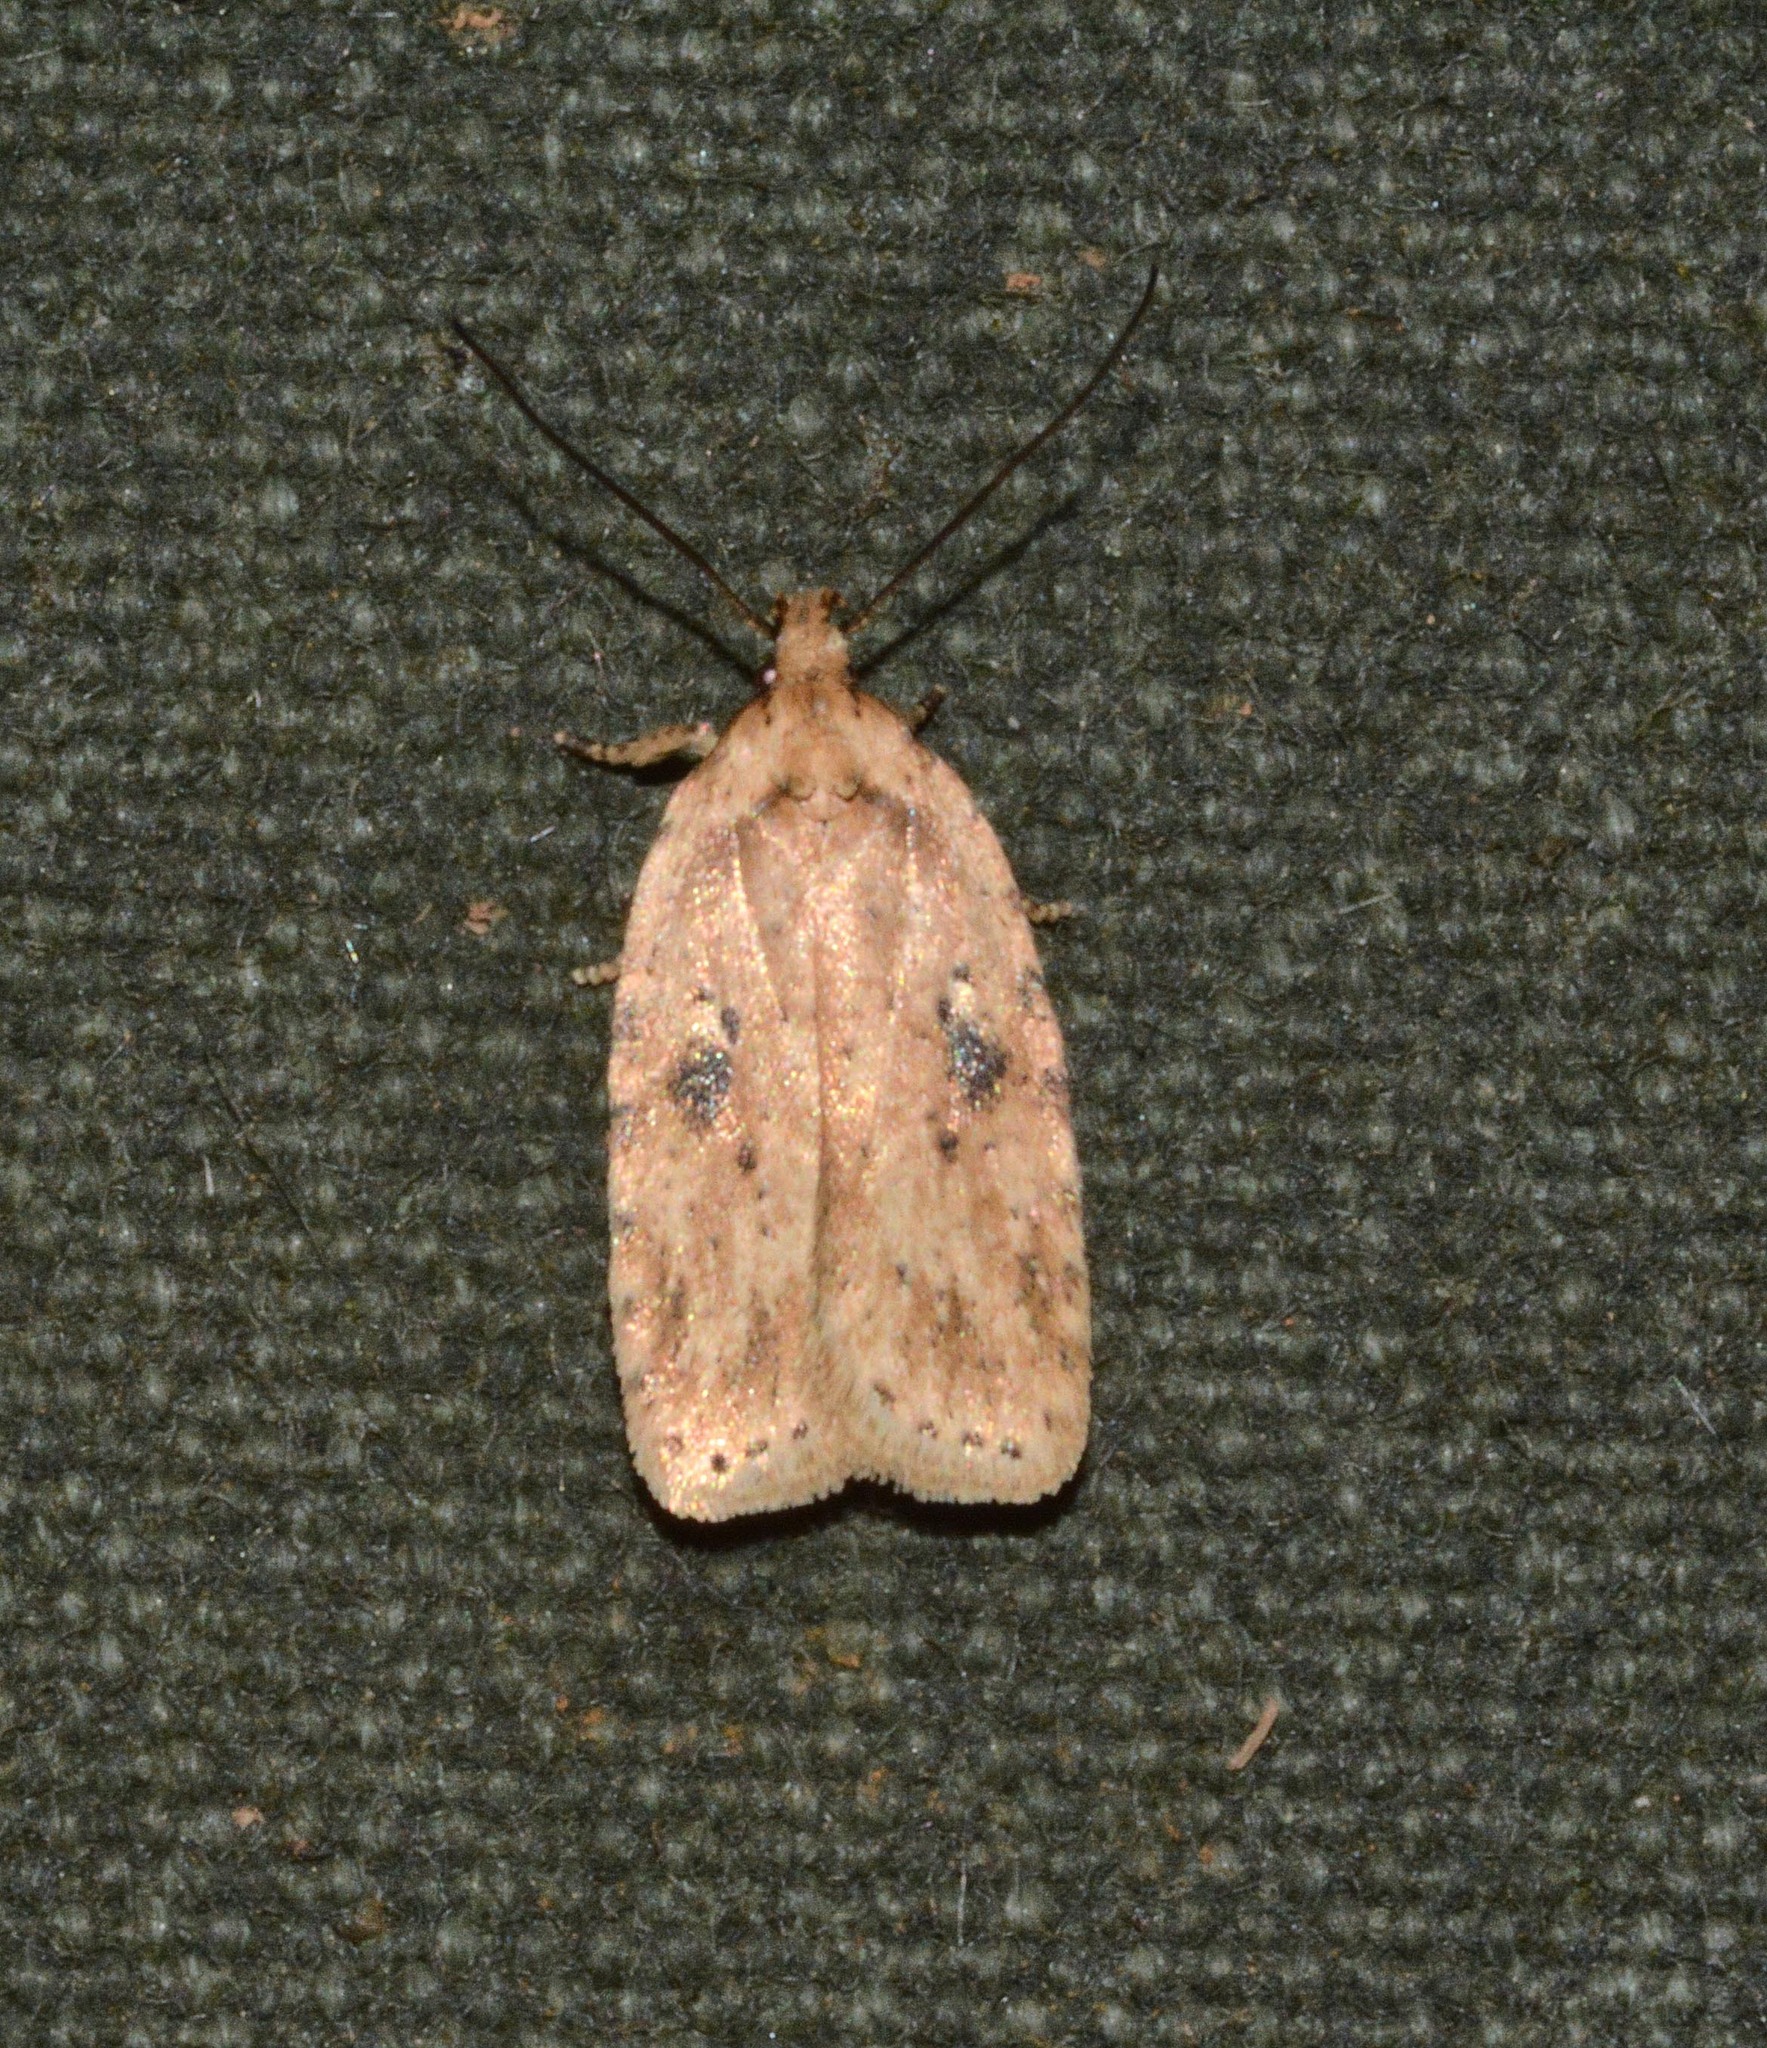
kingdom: Animalia
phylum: Arthropoda
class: Insecta
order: Lepidoptera
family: Depressariidae
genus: Agonopterix
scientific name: Agonopterix arenella
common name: Brindled flat-body
